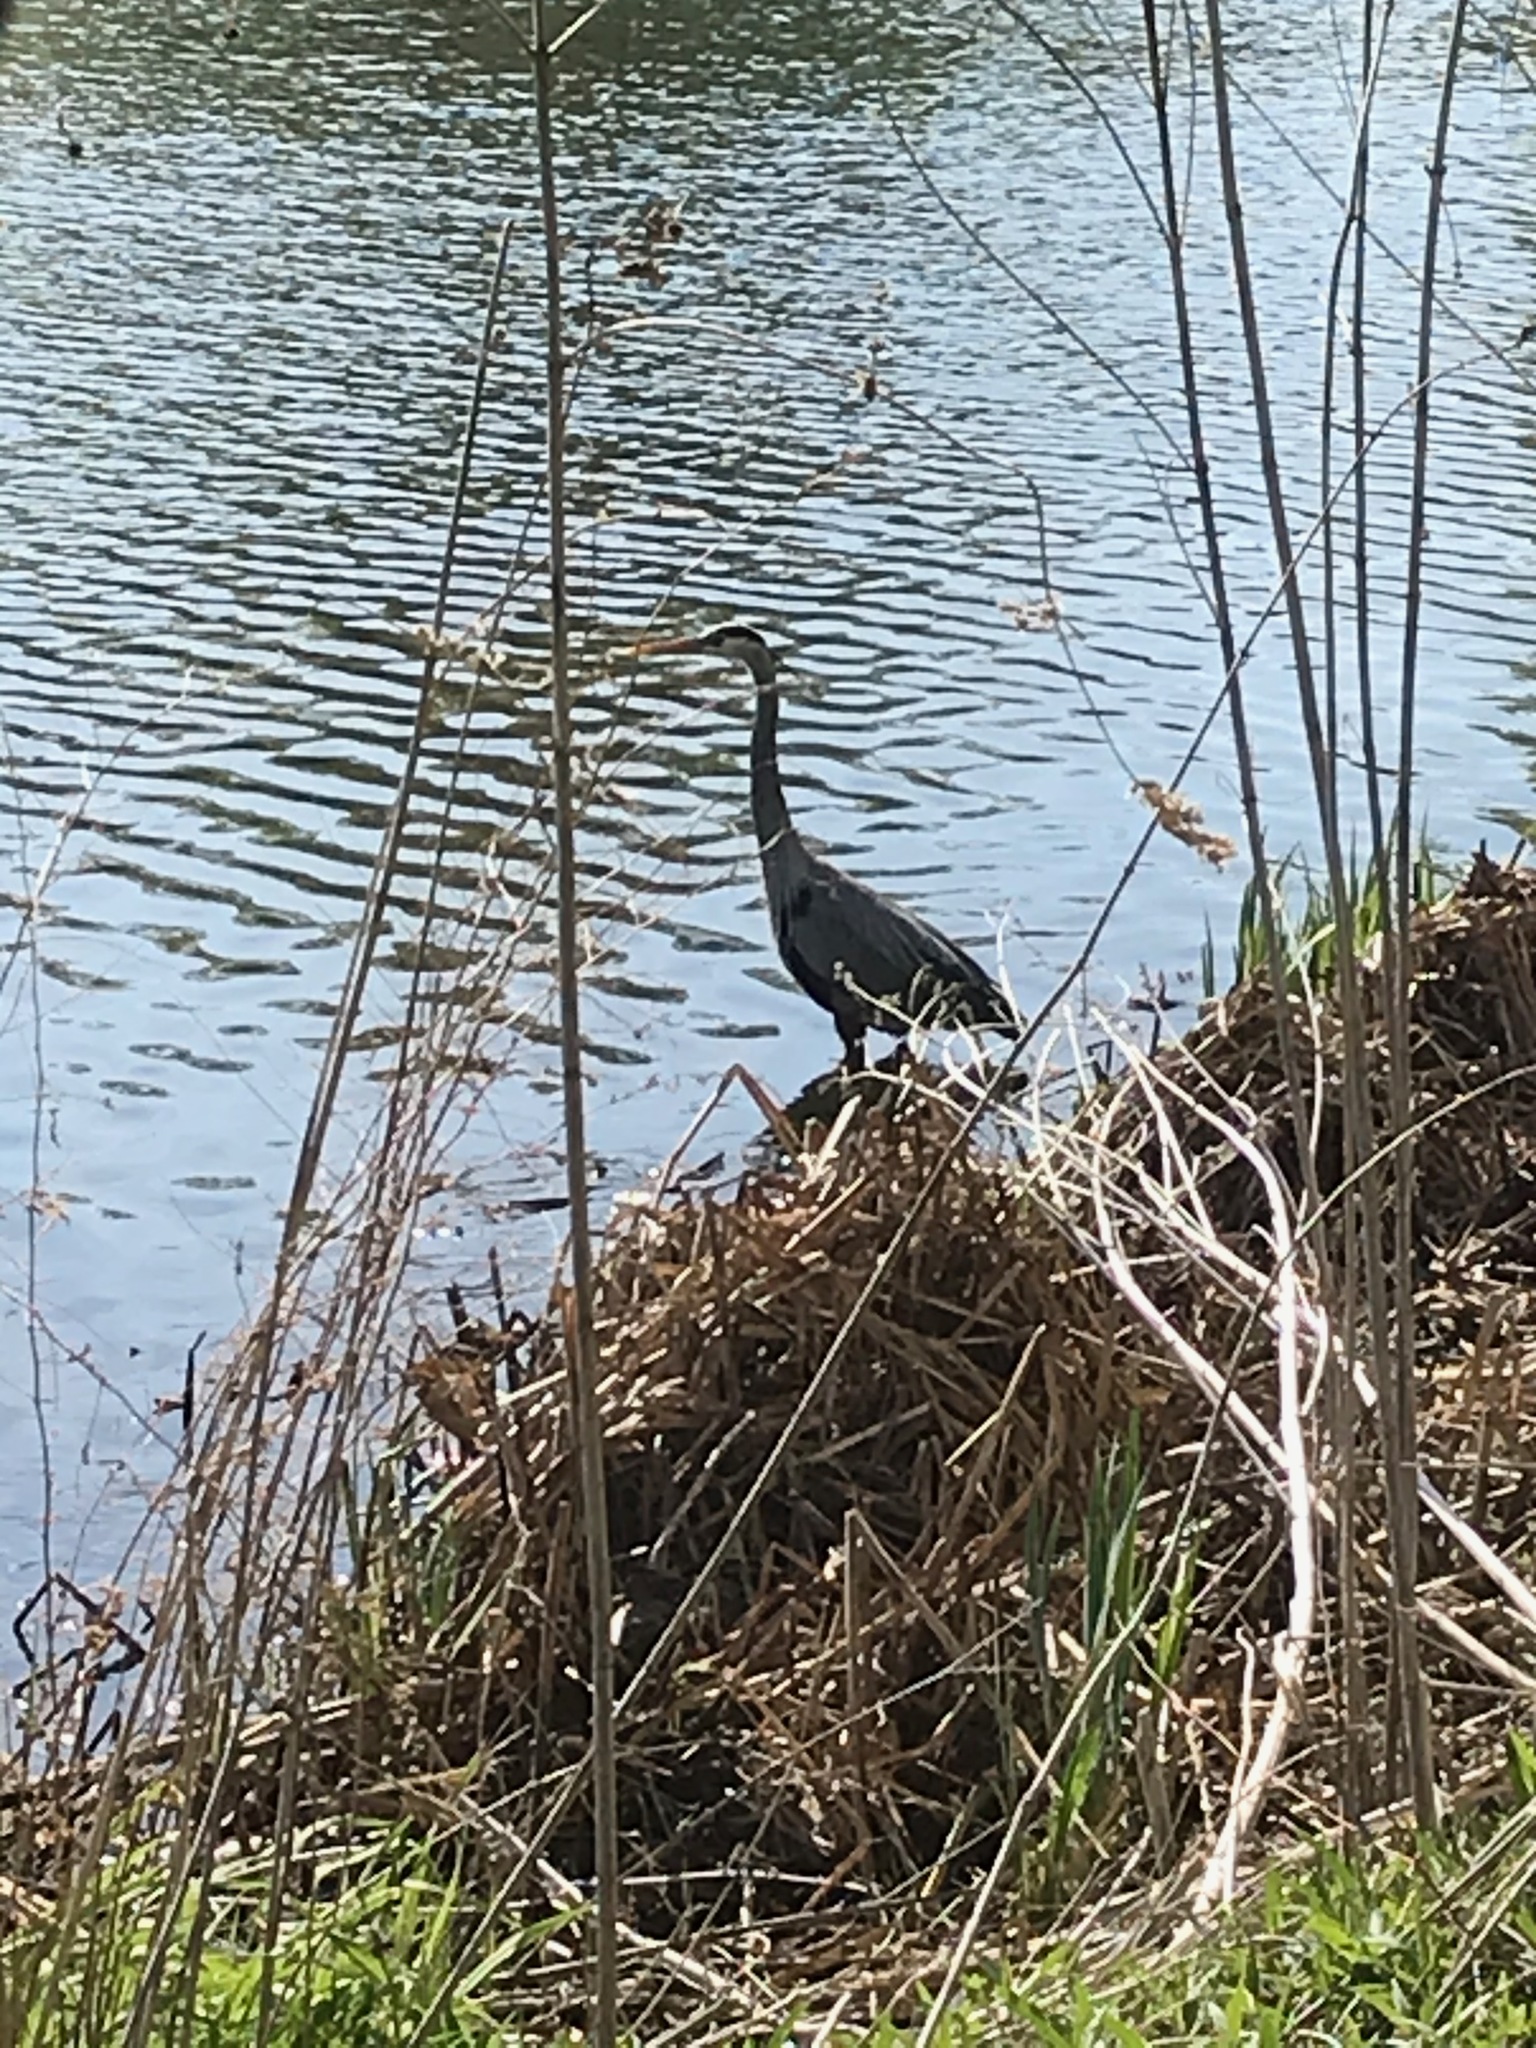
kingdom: Animalia
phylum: Chordata
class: Aves
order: Pelecaniformes
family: Ardeidae
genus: Ardea
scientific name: Ardea herodias
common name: Great blue heron
